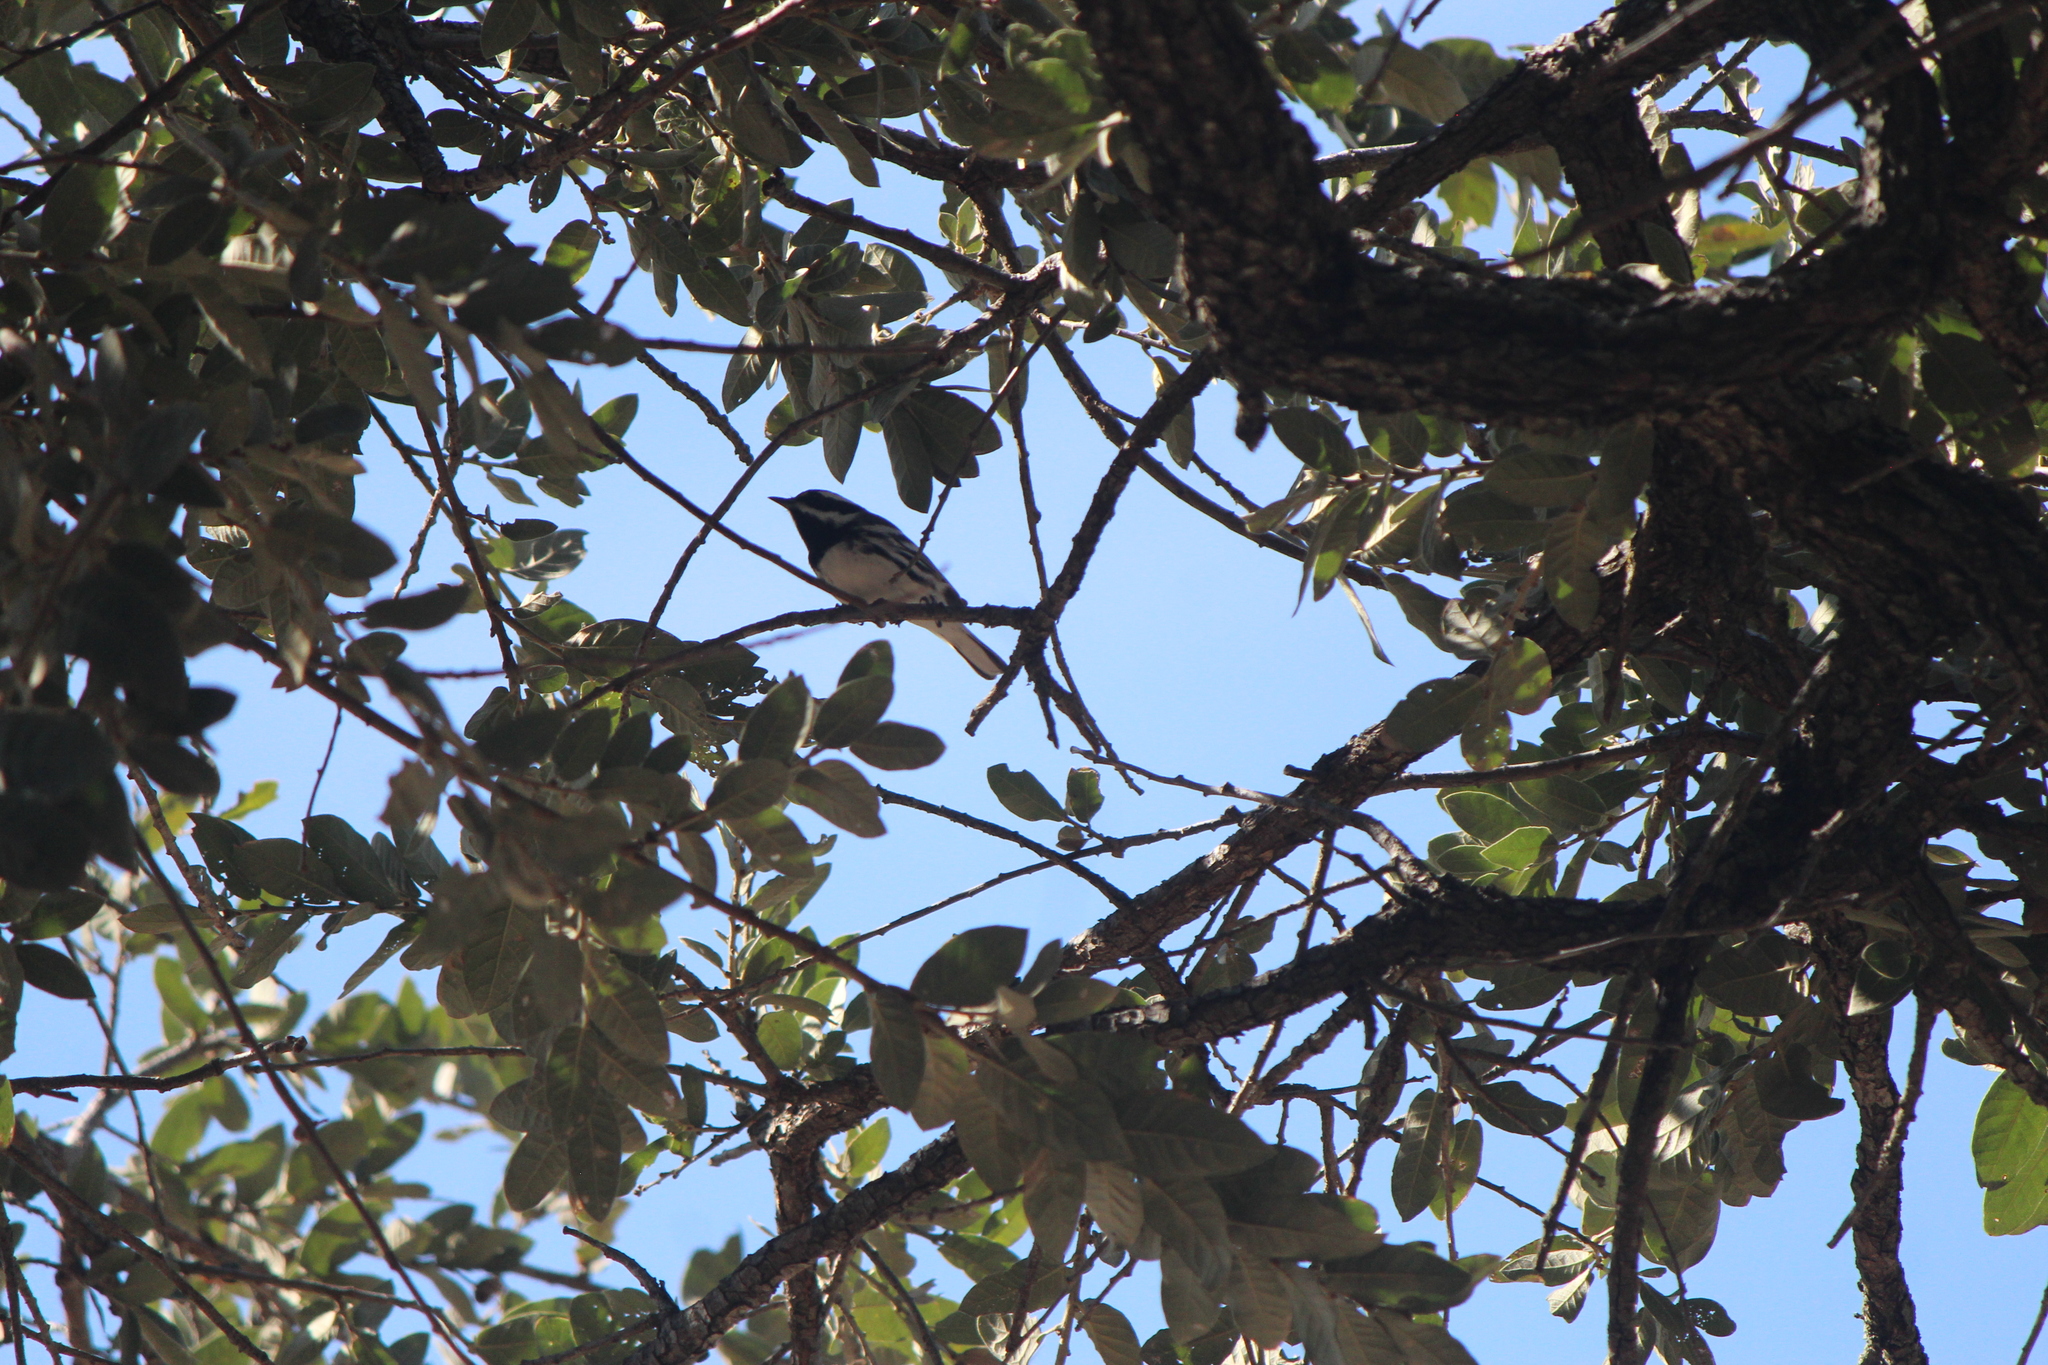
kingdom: Animalia
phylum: Chordata
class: Aves
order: Passeriformes
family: Parulidae
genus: Setophaga
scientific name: Setophaga nigrescens
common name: Black-throated gray warbler
